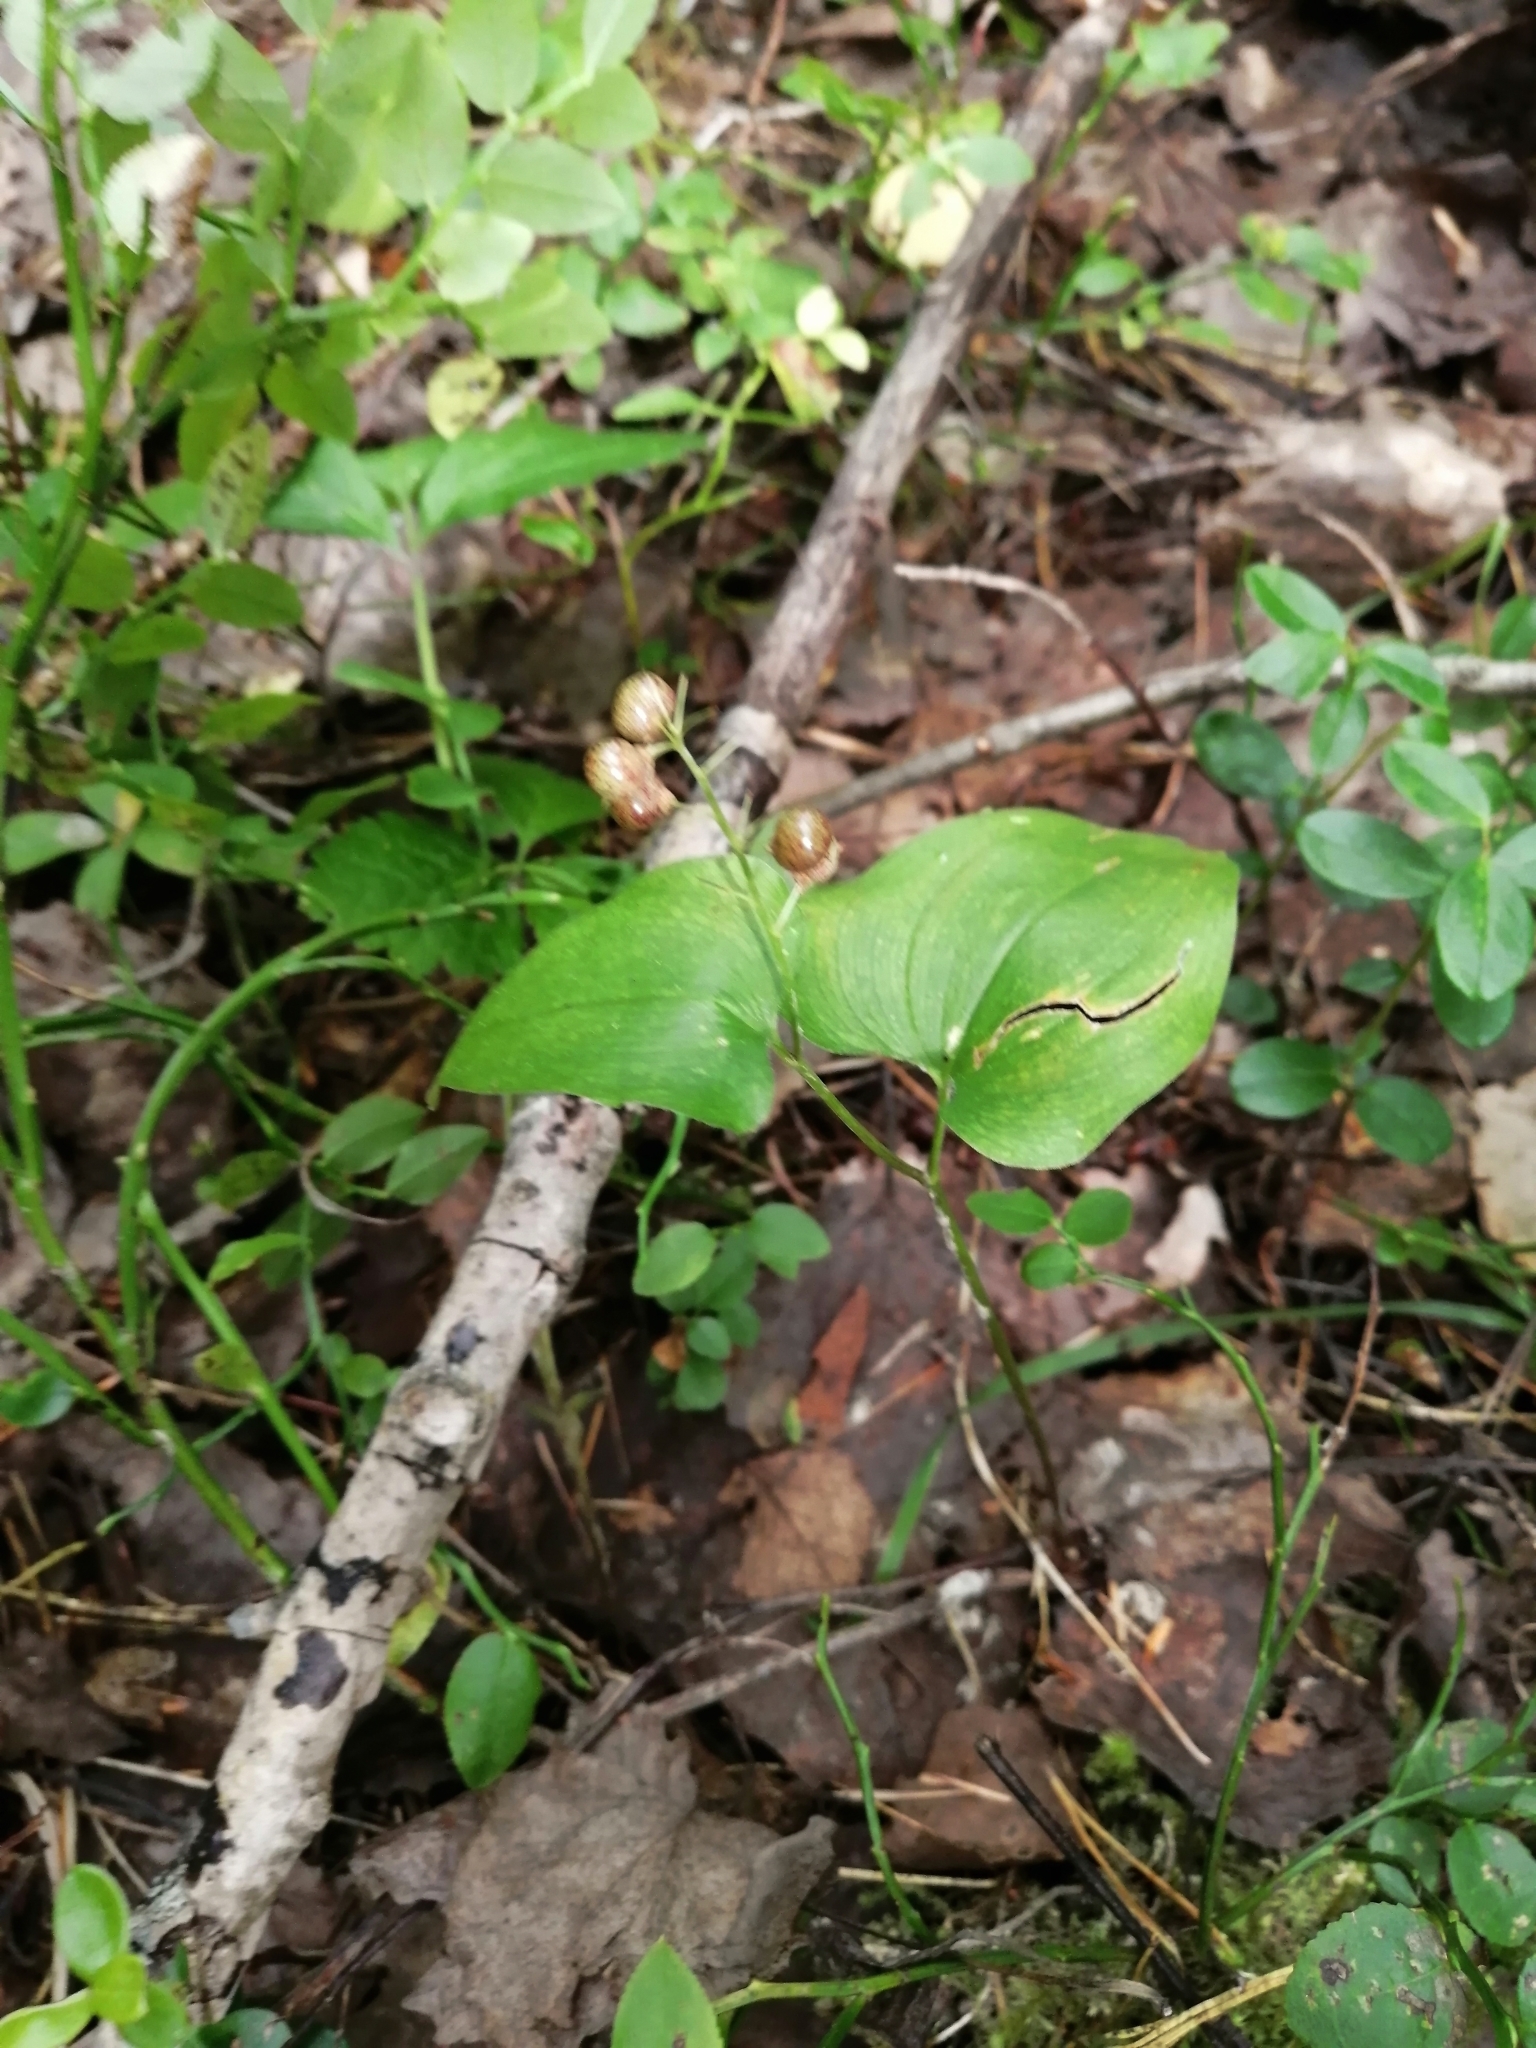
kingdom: Plantae
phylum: Tracheophyta
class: Liliopsida
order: Asparagales
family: Asparagaceae
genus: Maianthemum
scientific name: Maianthemum bifolium
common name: May lily
